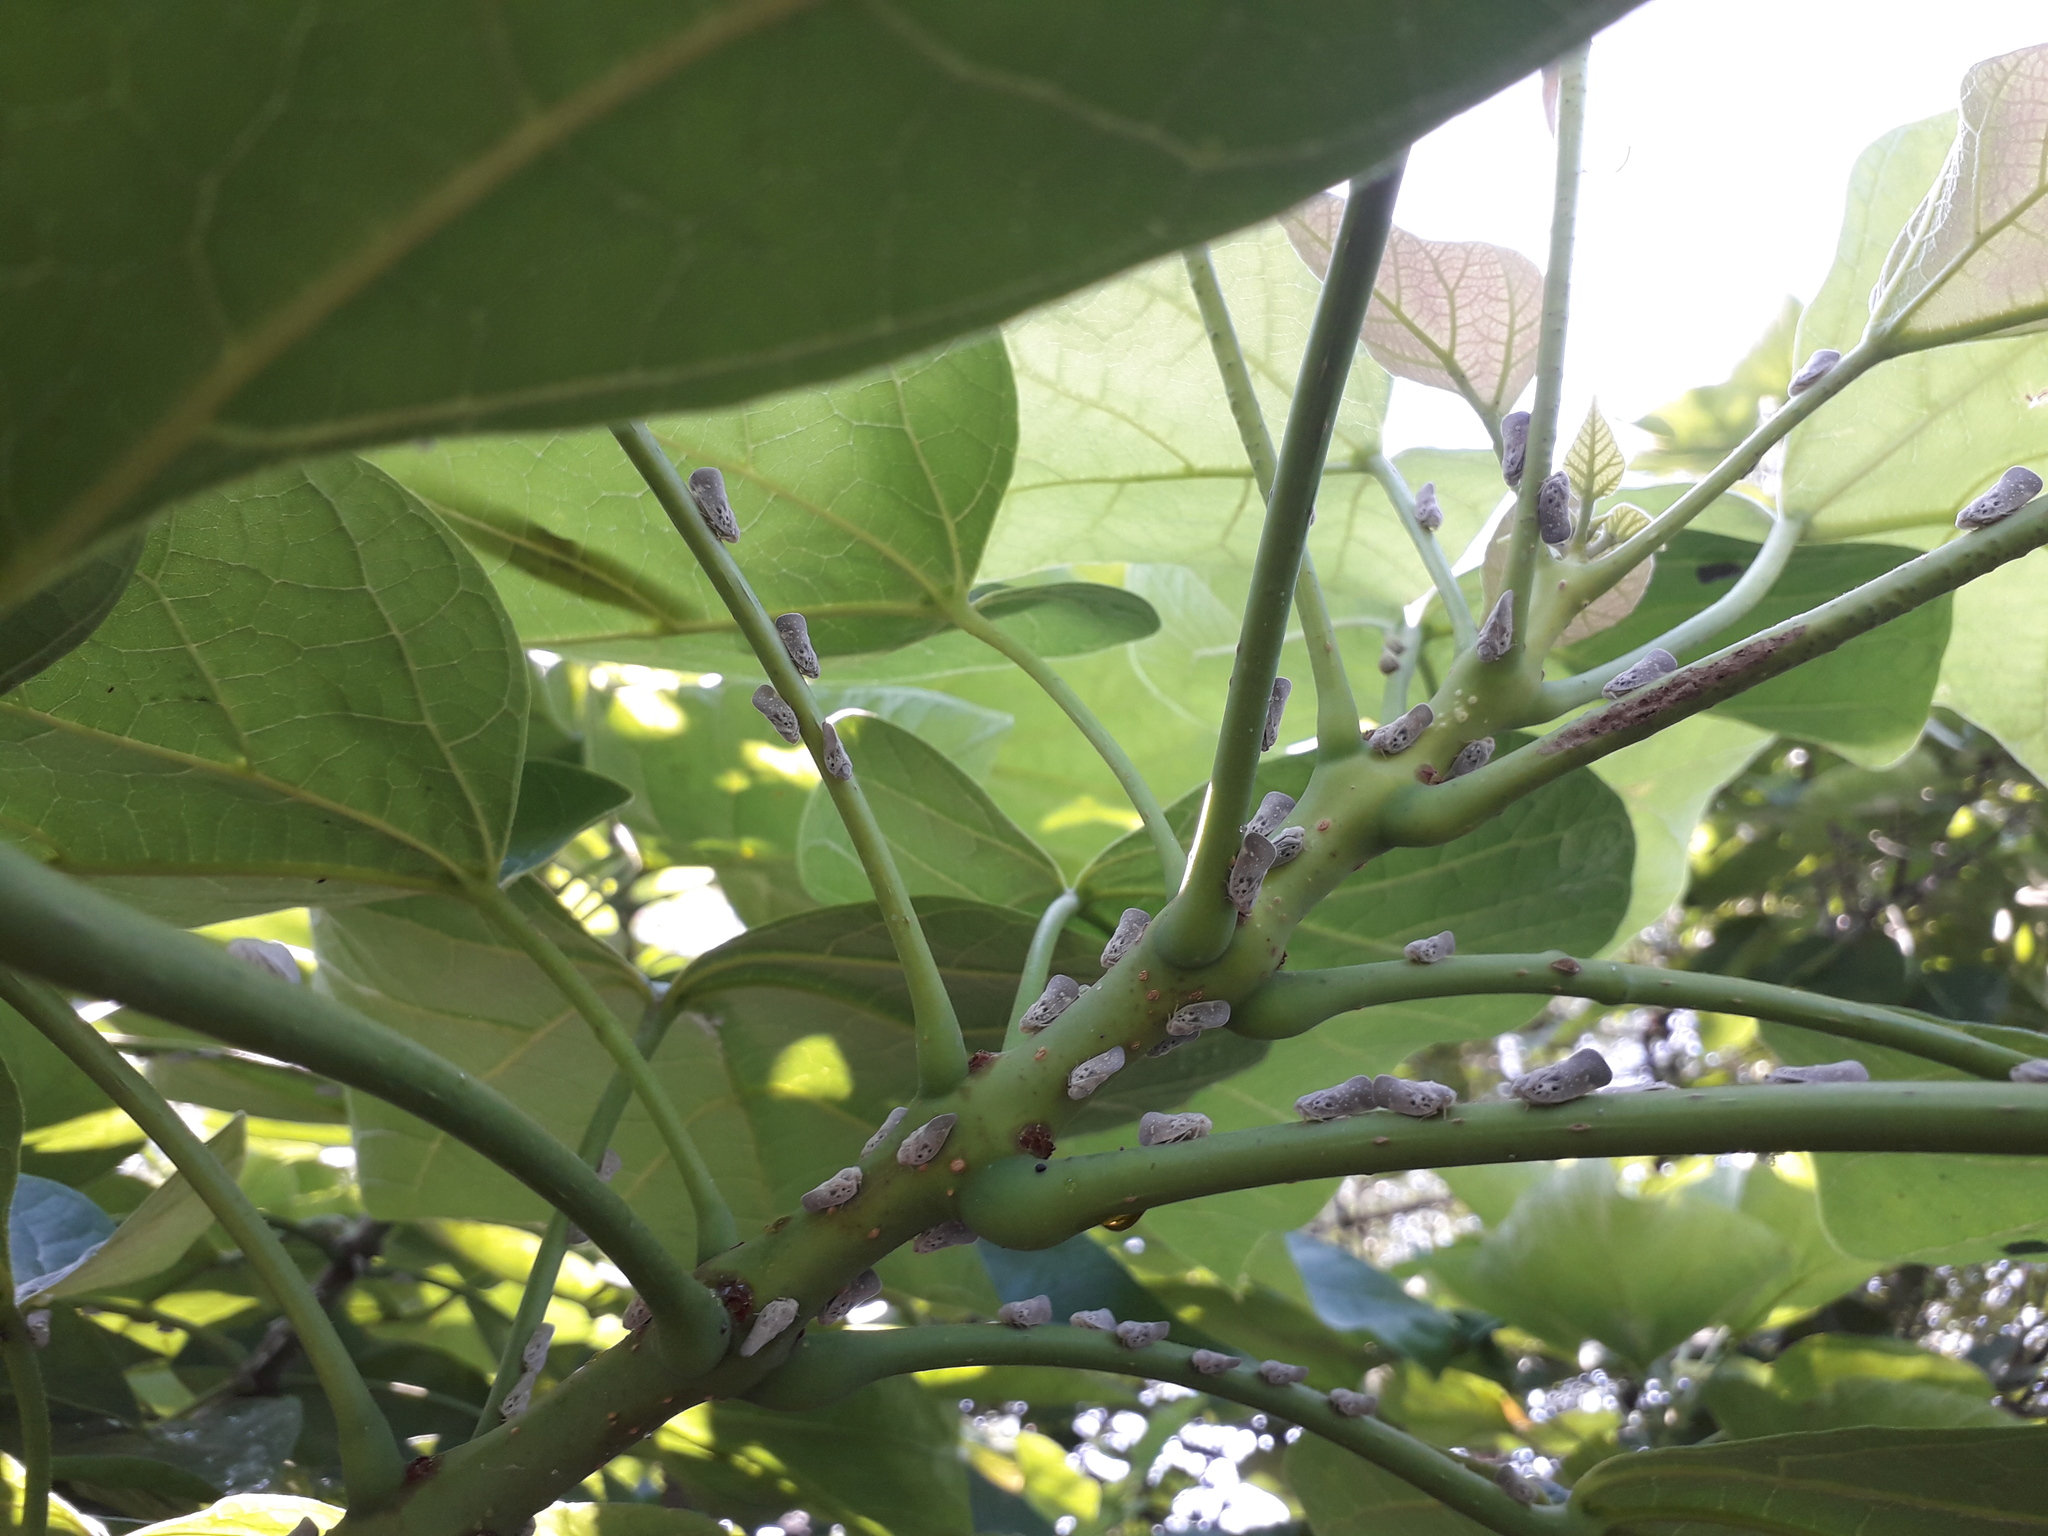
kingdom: Animalia
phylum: Arthropoda
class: Insecta
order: Hemiptera
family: Flatidae
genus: Metcalfa
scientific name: Metcalfa pruinosa
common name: Citrus flatid planthopper
